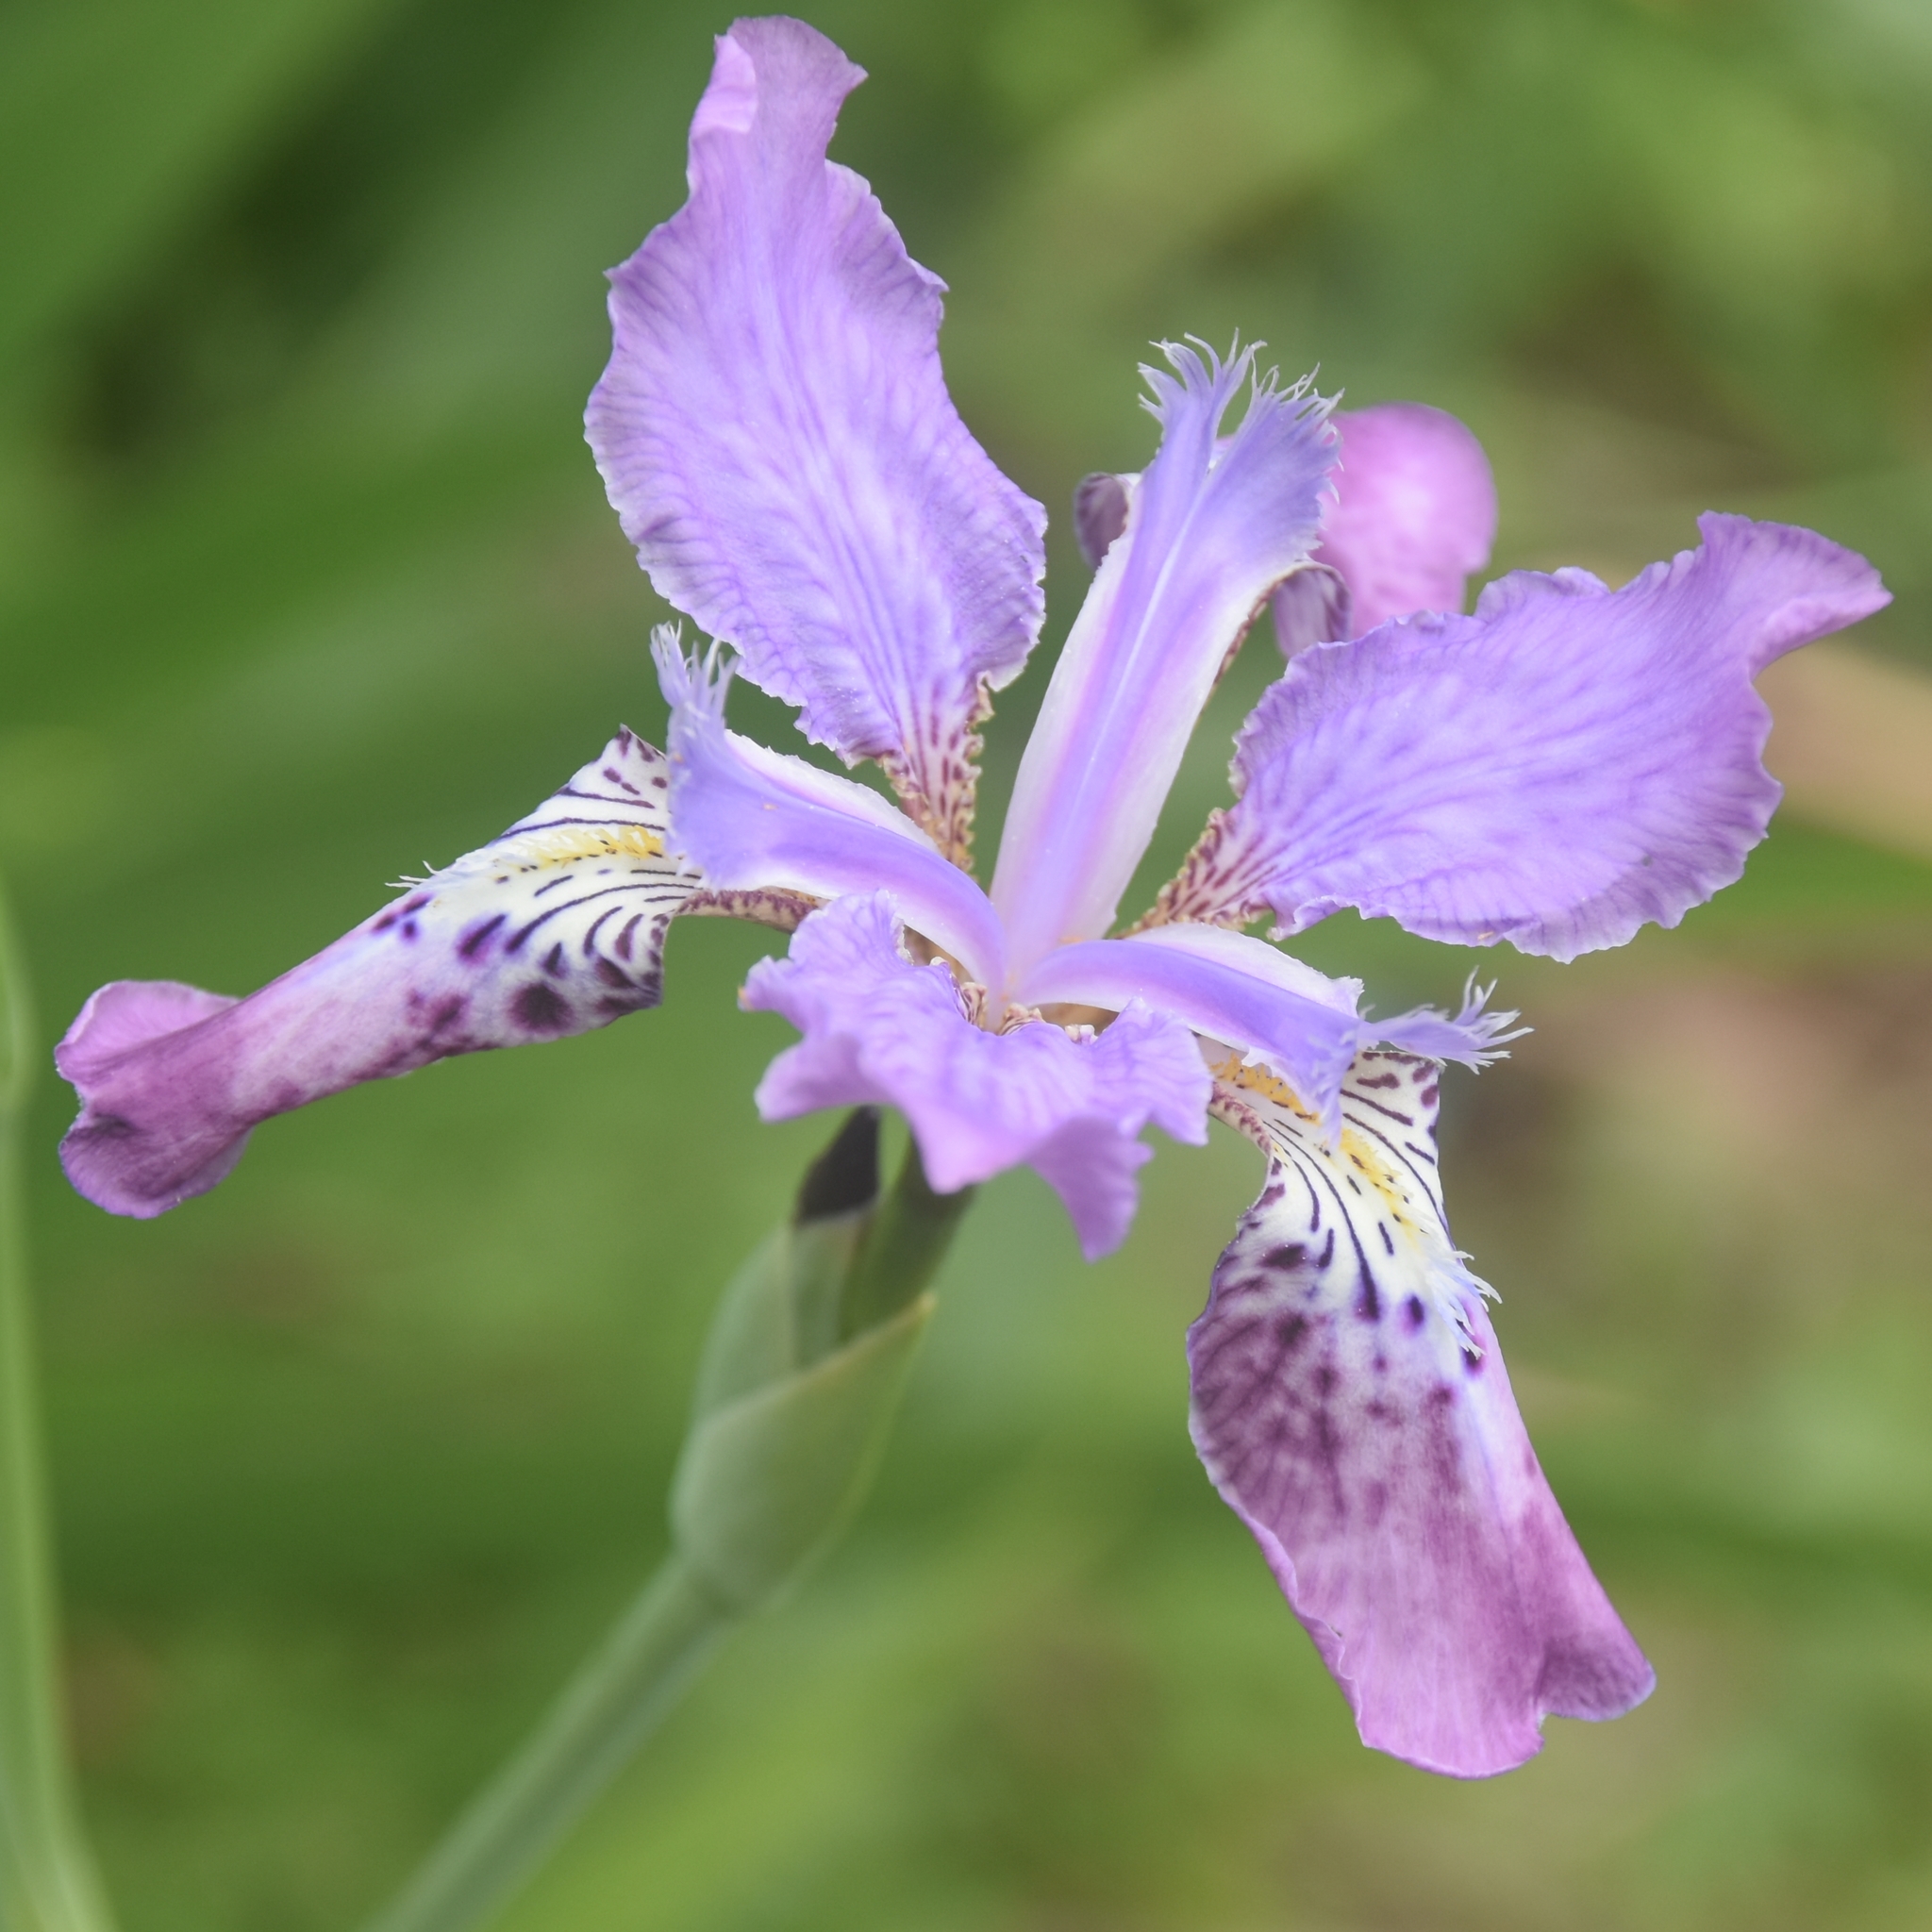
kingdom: Plantae
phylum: Tracheophyta
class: Liliopsida
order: Asparagales
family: Iridaceae
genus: Iris
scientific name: Iris milesii
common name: Red-flower iris
